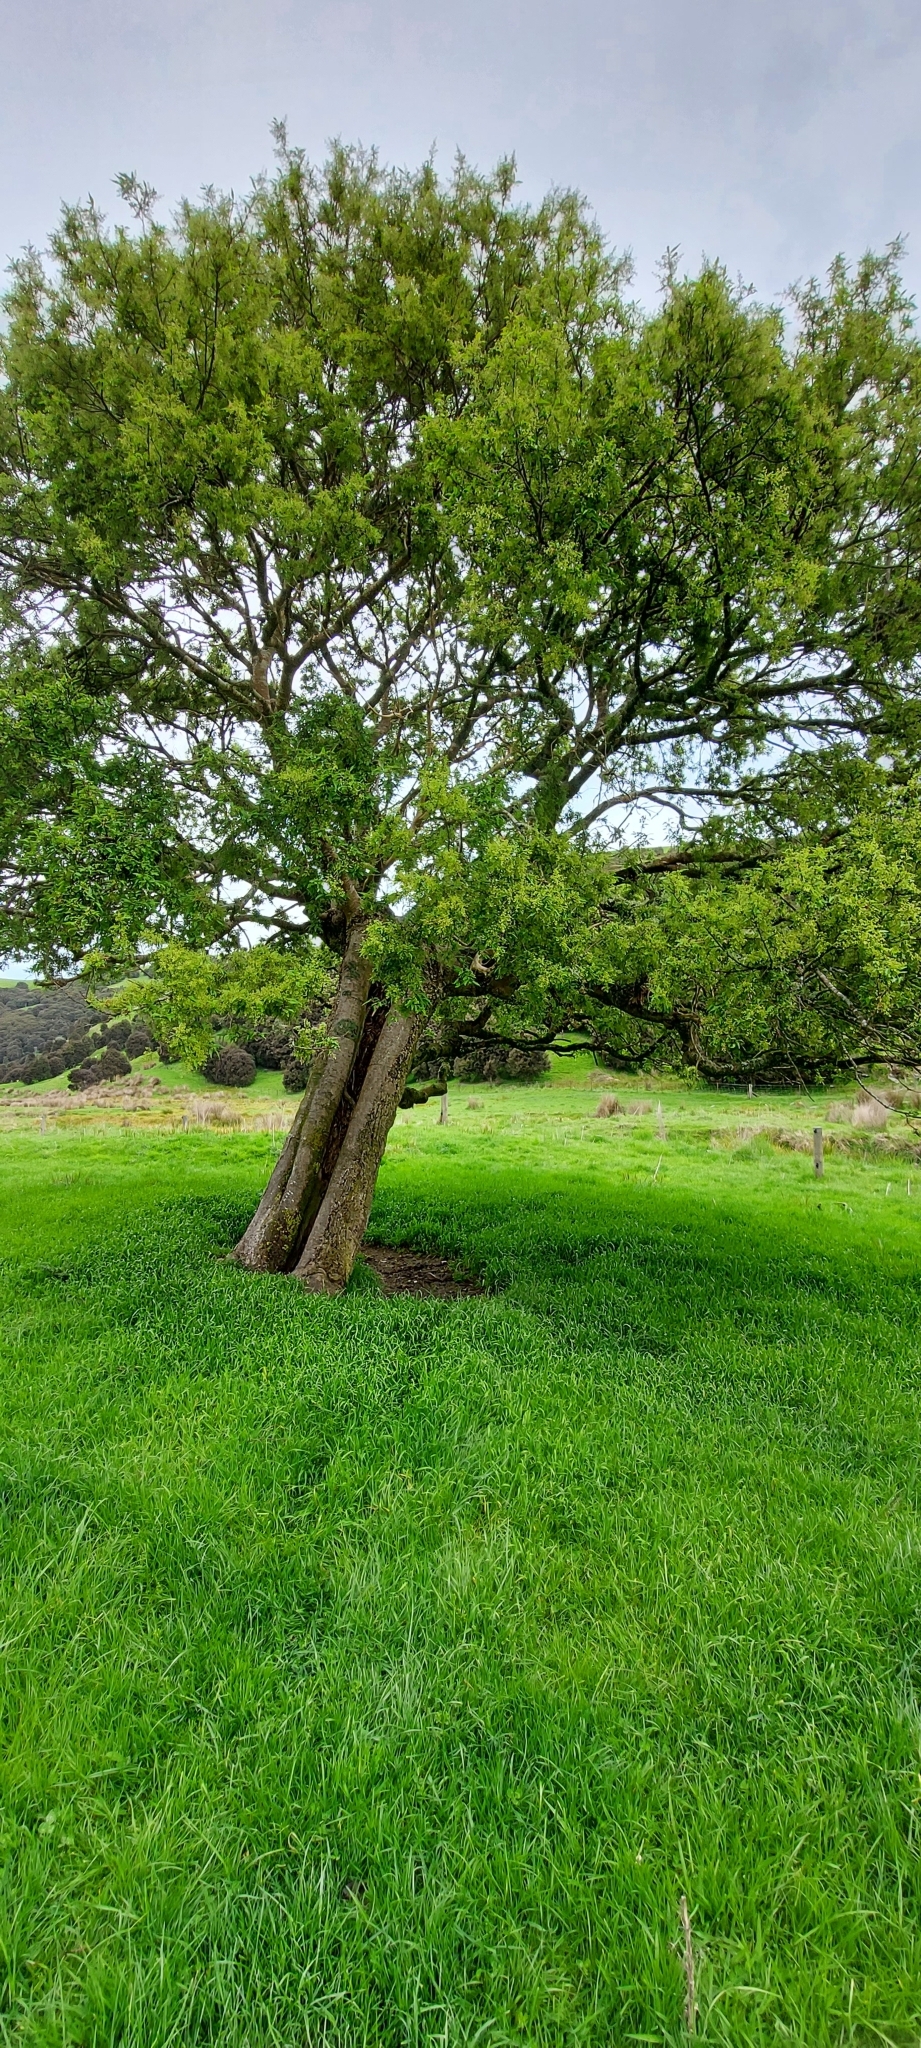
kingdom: Plantae
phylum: Tracheophyta
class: Magnoliopsida
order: Malvales
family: Malvaceae
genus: Plagianthus
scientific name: Plagianthus regius
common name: Manatu
